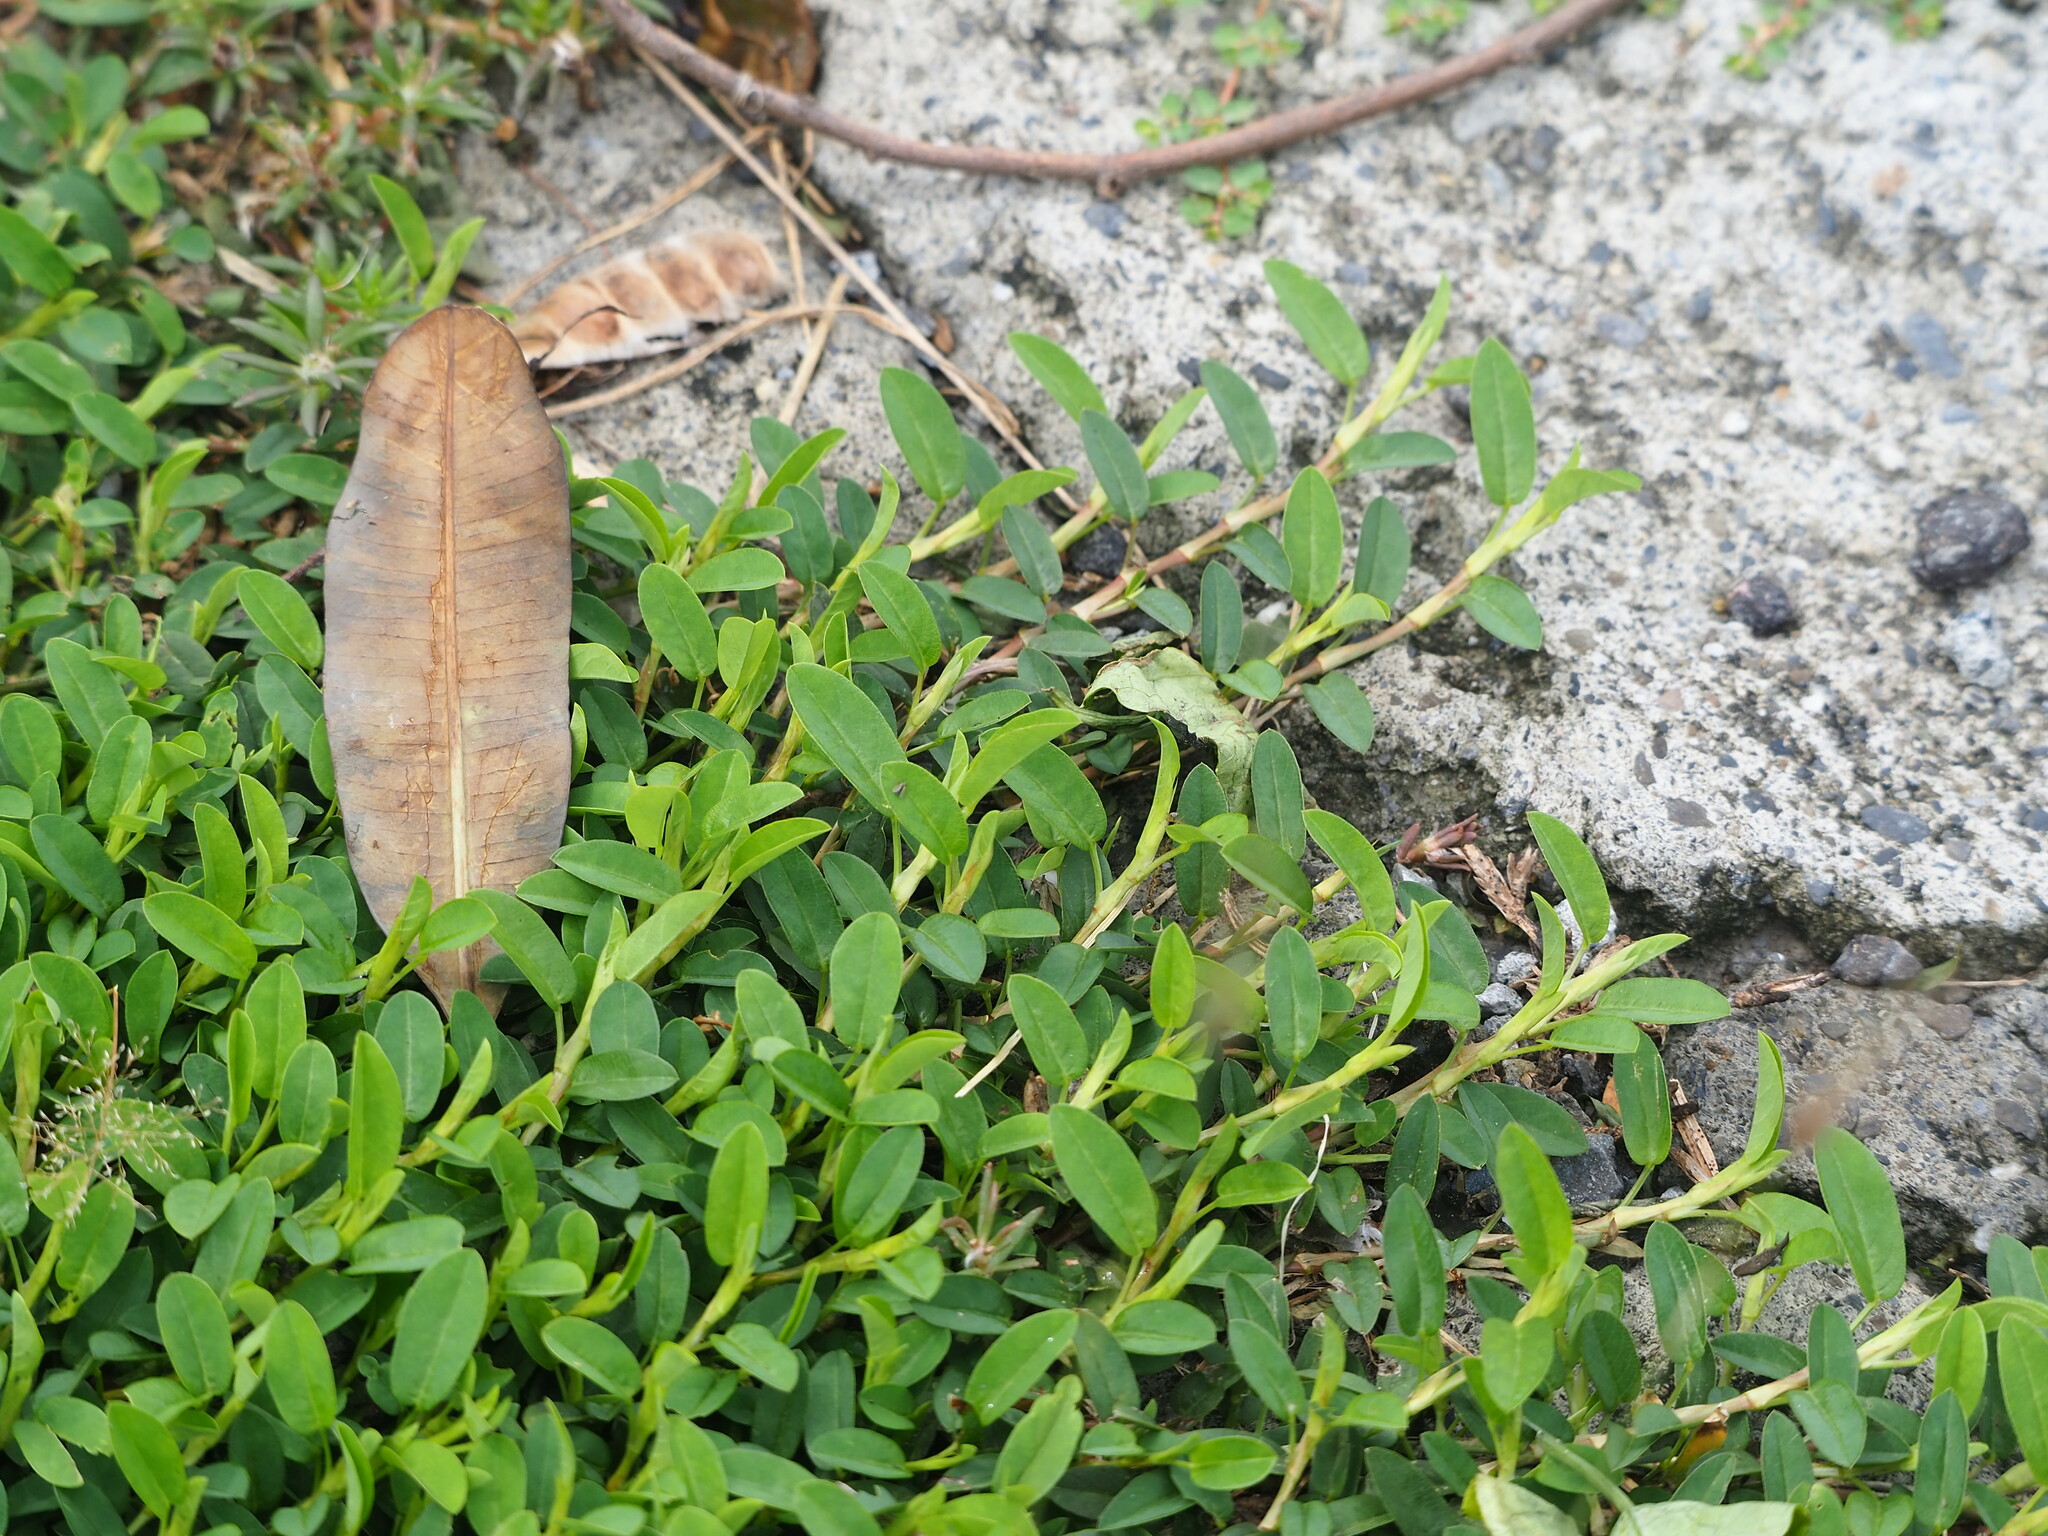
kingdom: Plantae
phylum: Tracheophyta
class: Magnoliopsida
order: Fabales
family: Fabaceae
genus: Alysicarpus
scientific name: Alysicarpus vaginalis
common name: White moneywort
